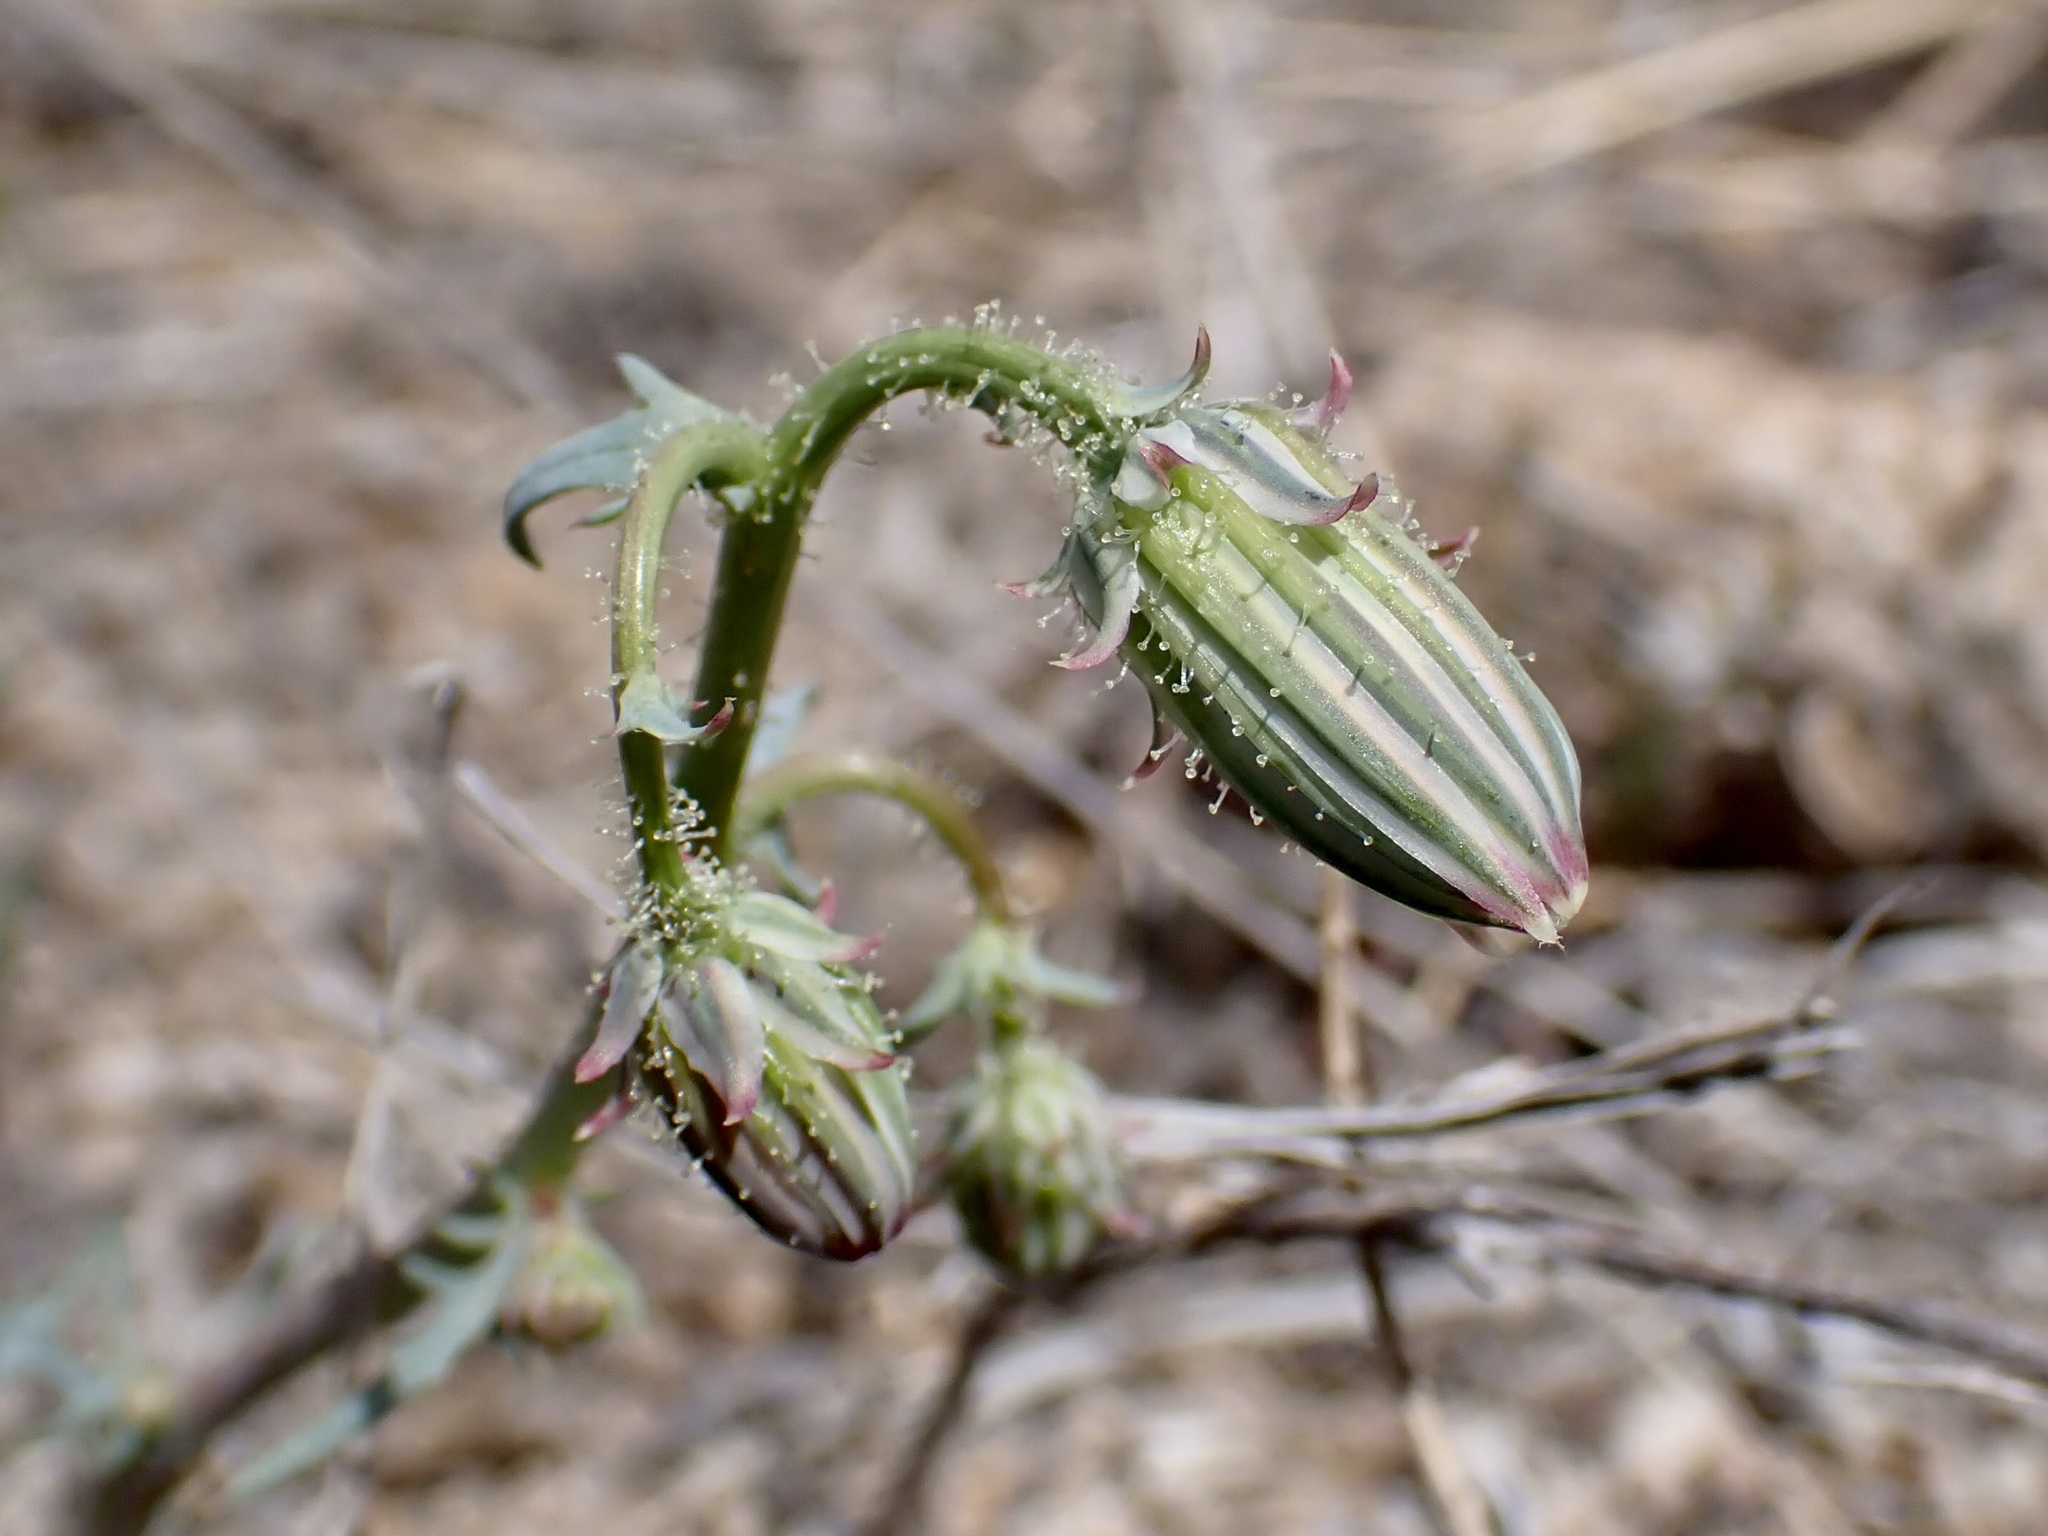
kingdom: Plantae
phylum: Tracheophyta
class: Magnoliopsida
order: Asterales
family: Asteraceae
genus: Calycoseris
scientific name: Calycoseris wrightii
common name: White tackstem
